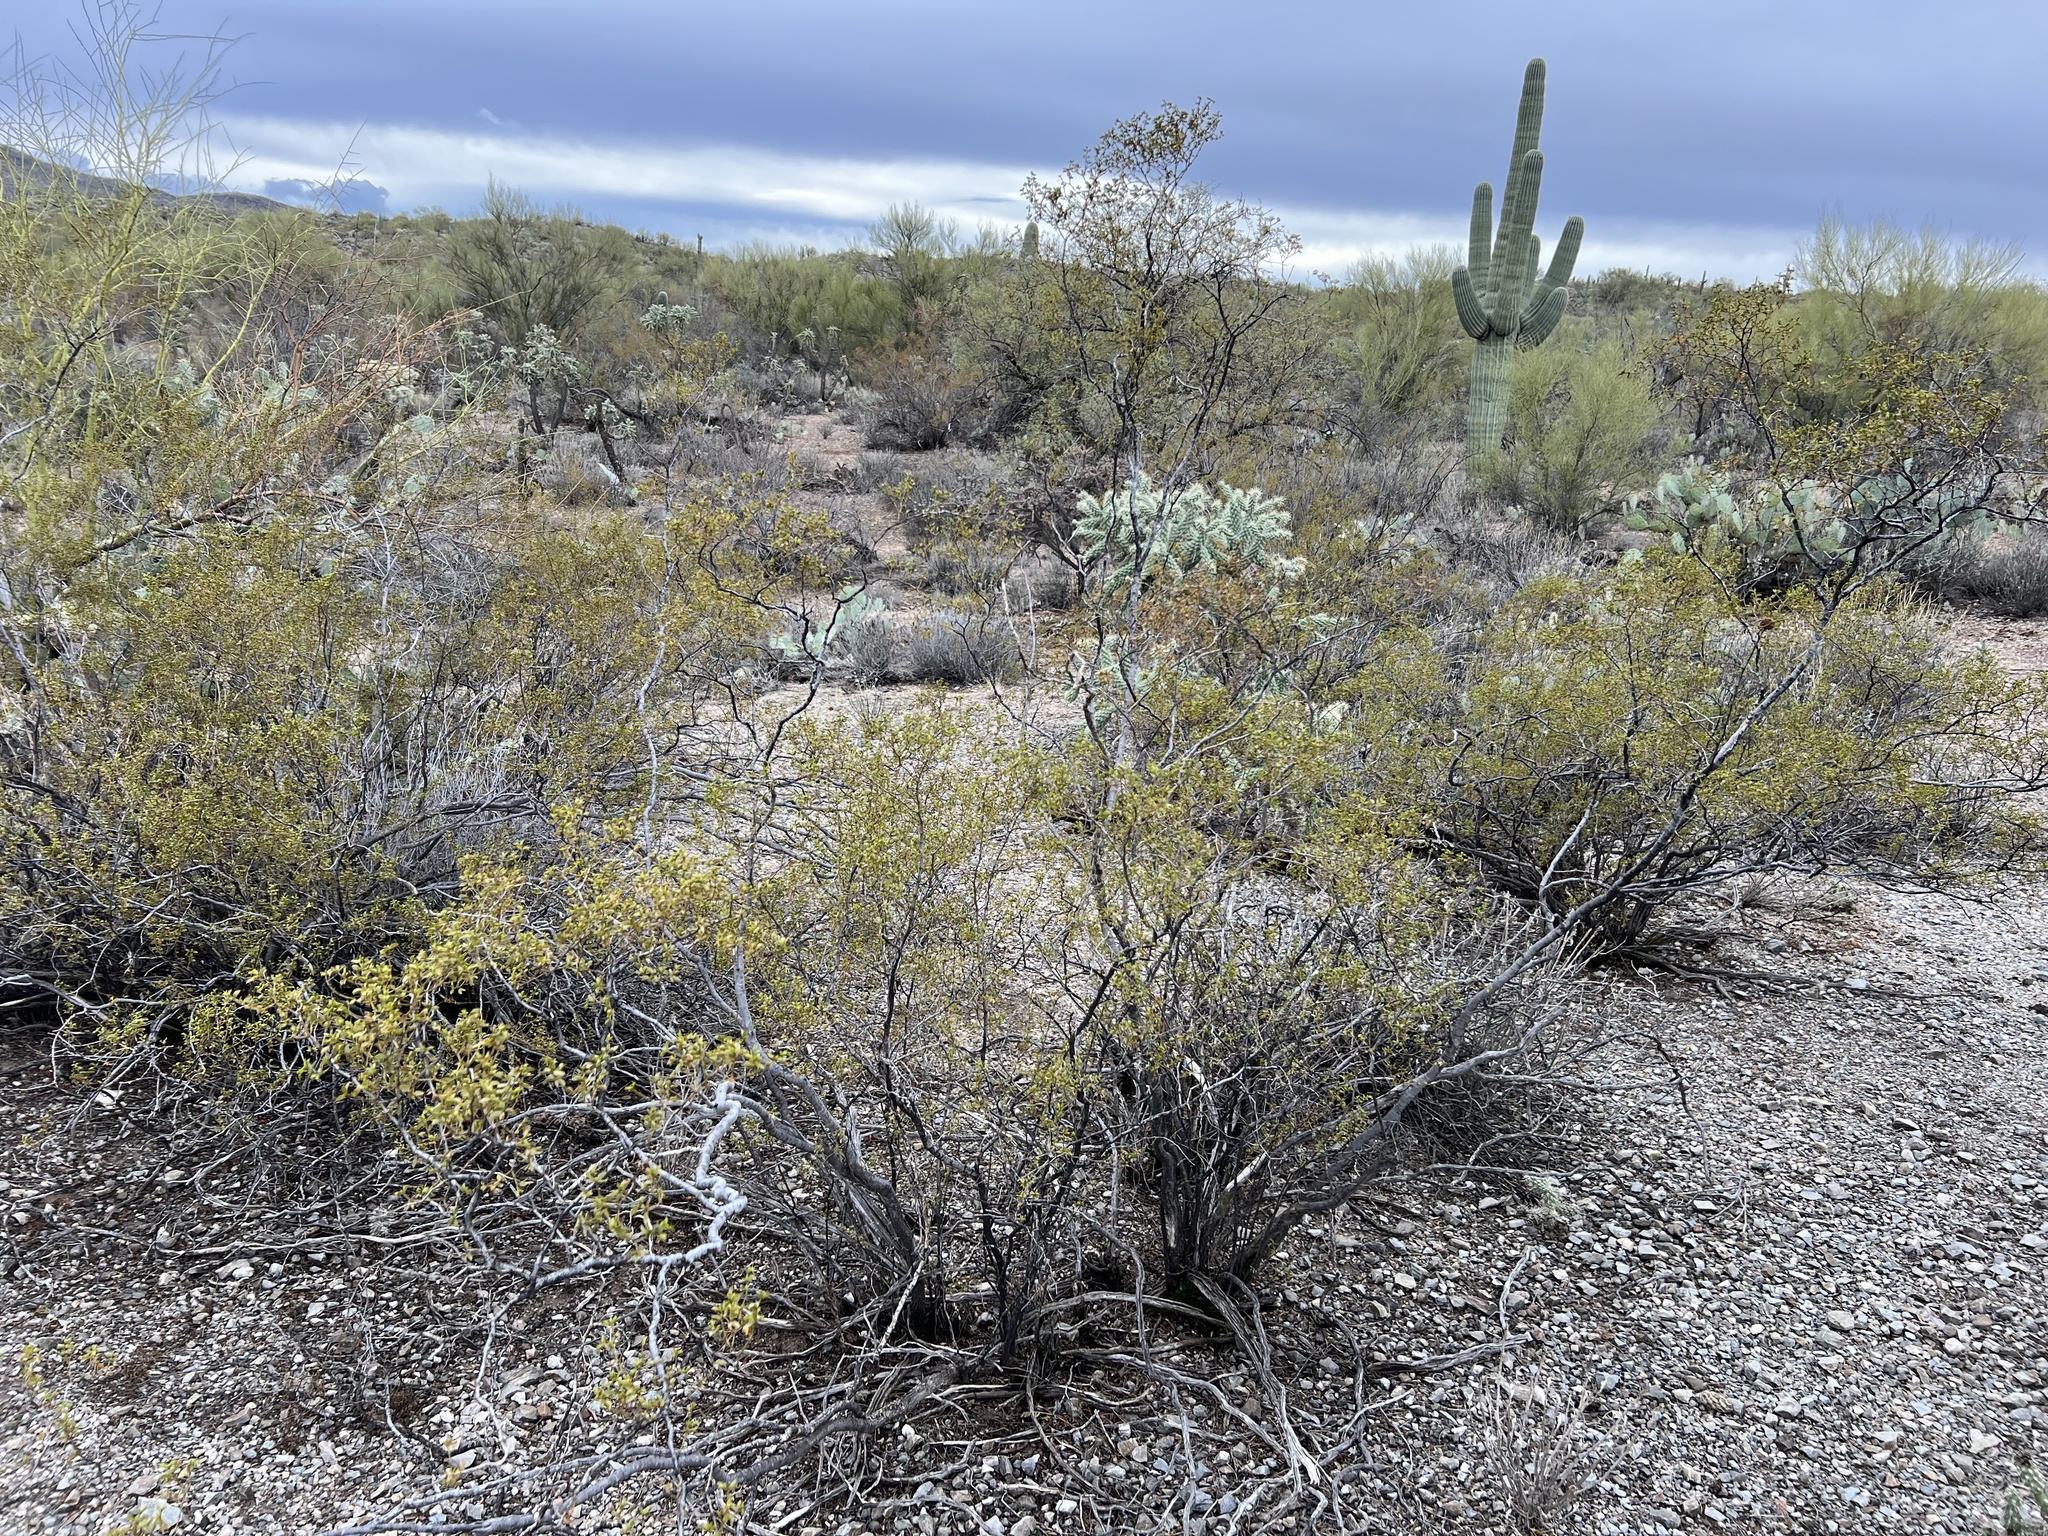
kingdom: Plantae
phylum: Tracheophyta
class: Magnoliopsida
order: Zygophyllales
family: Zygophyllaceae
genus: Larrea
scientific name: Larrea tridentata
